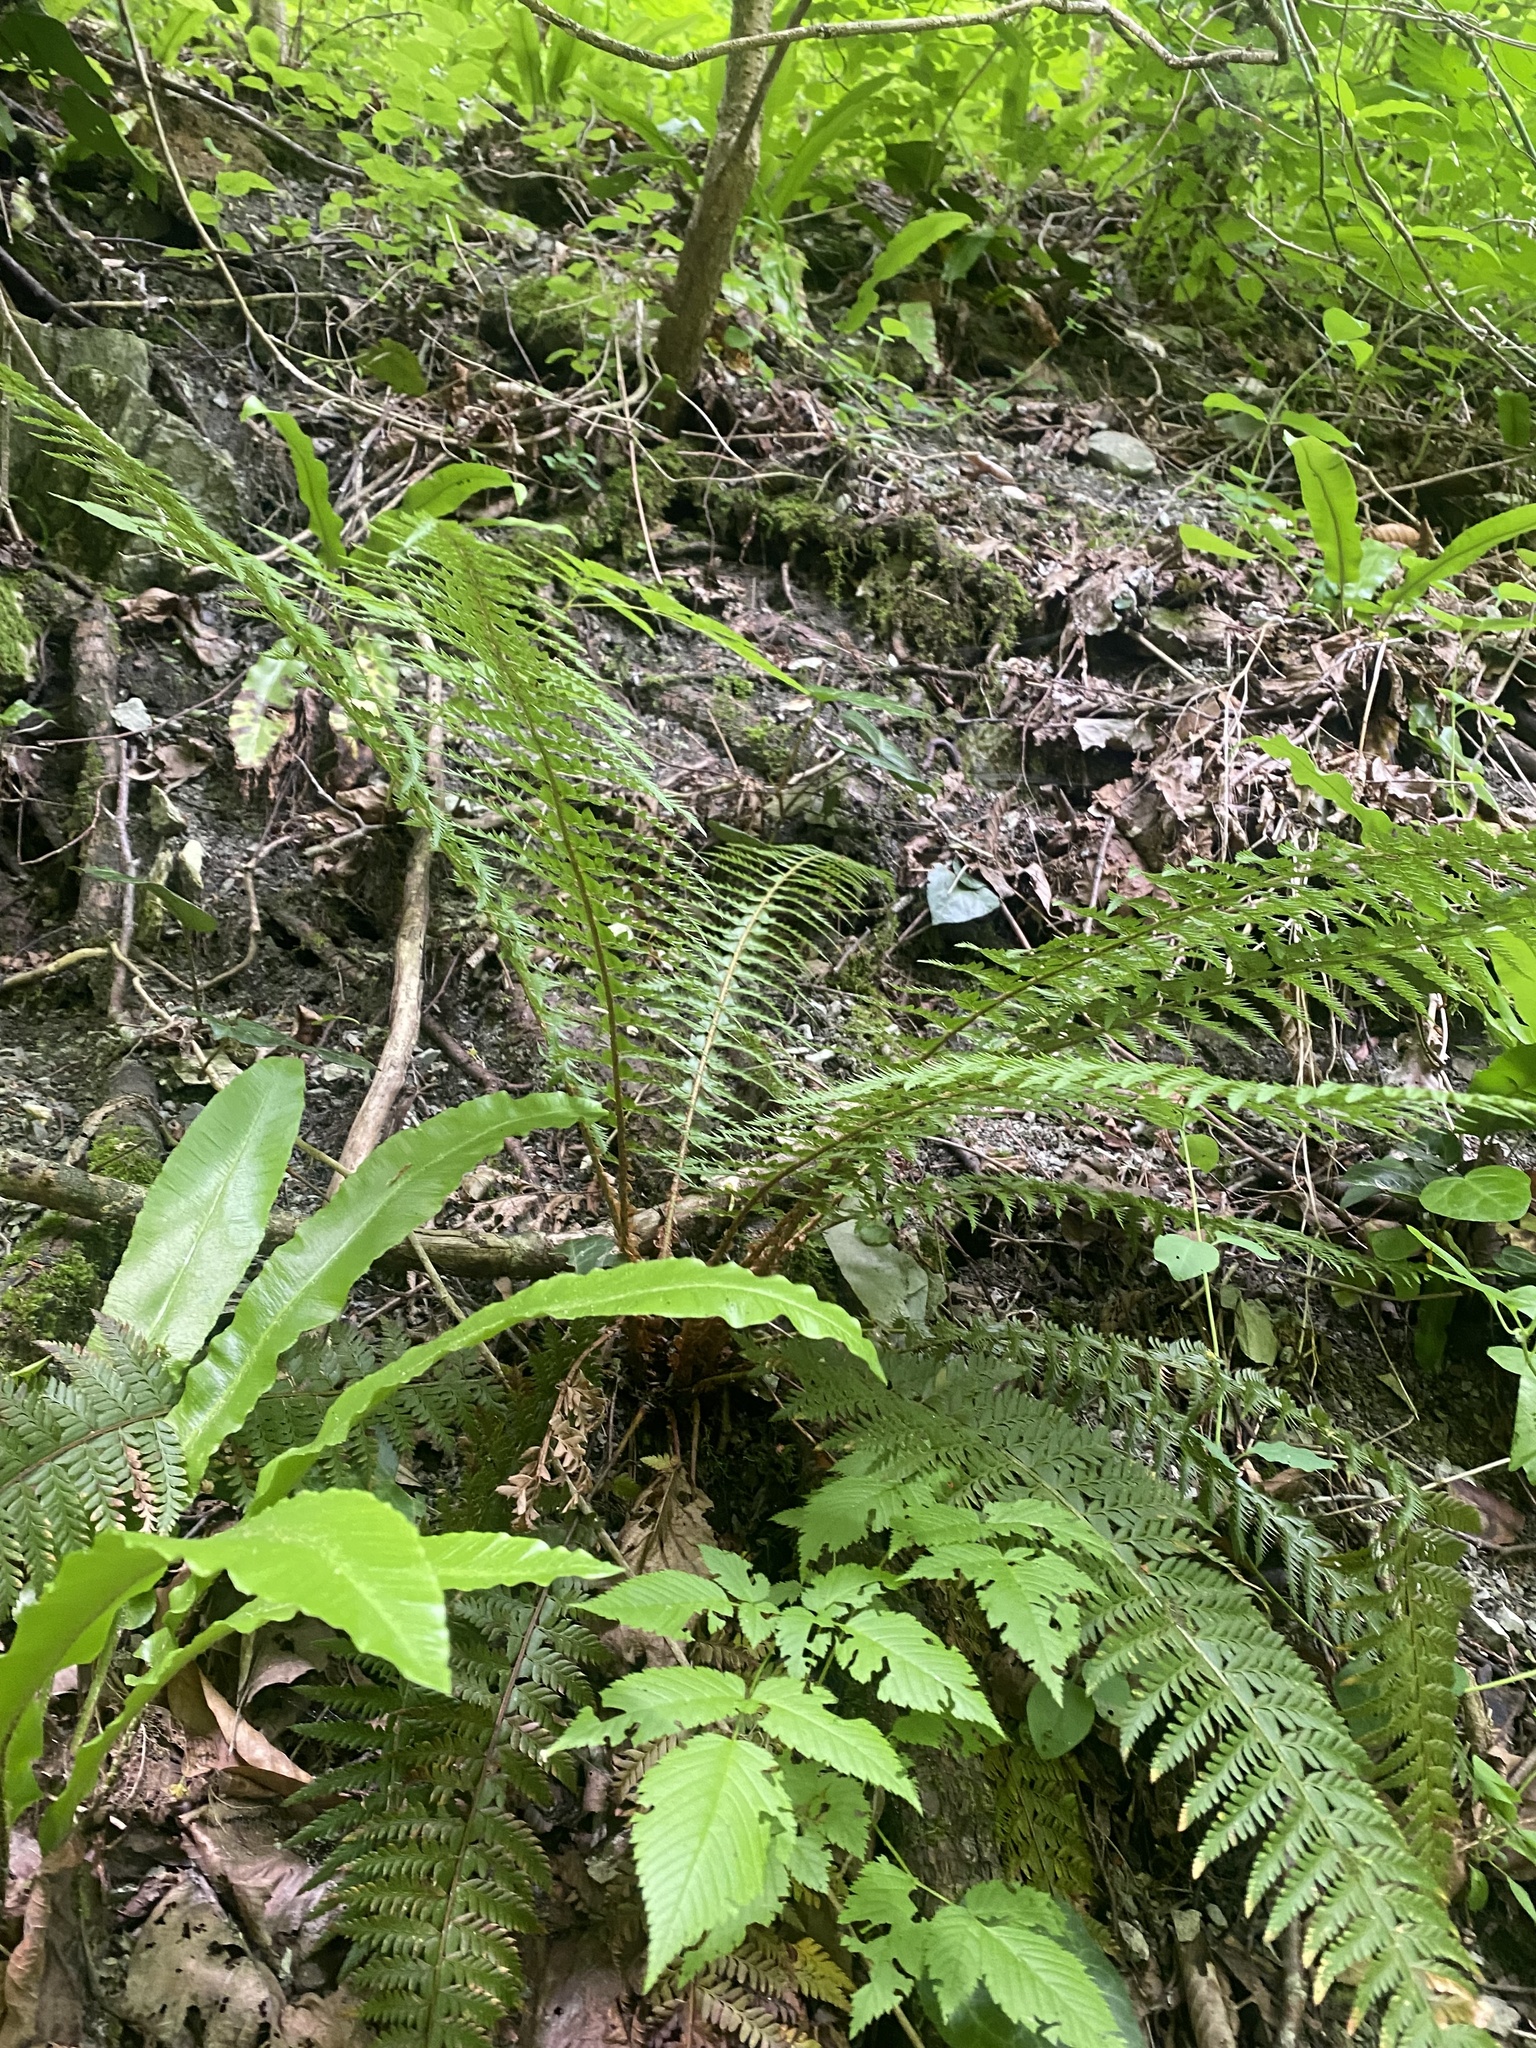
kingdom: Plantae
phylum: Tracheophyta
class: Polypodiopsida
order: Polypodiales
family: Dryopteridaceae
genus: Polystichum
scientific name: Polystichum aculeatum
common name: Hard shield-fern
